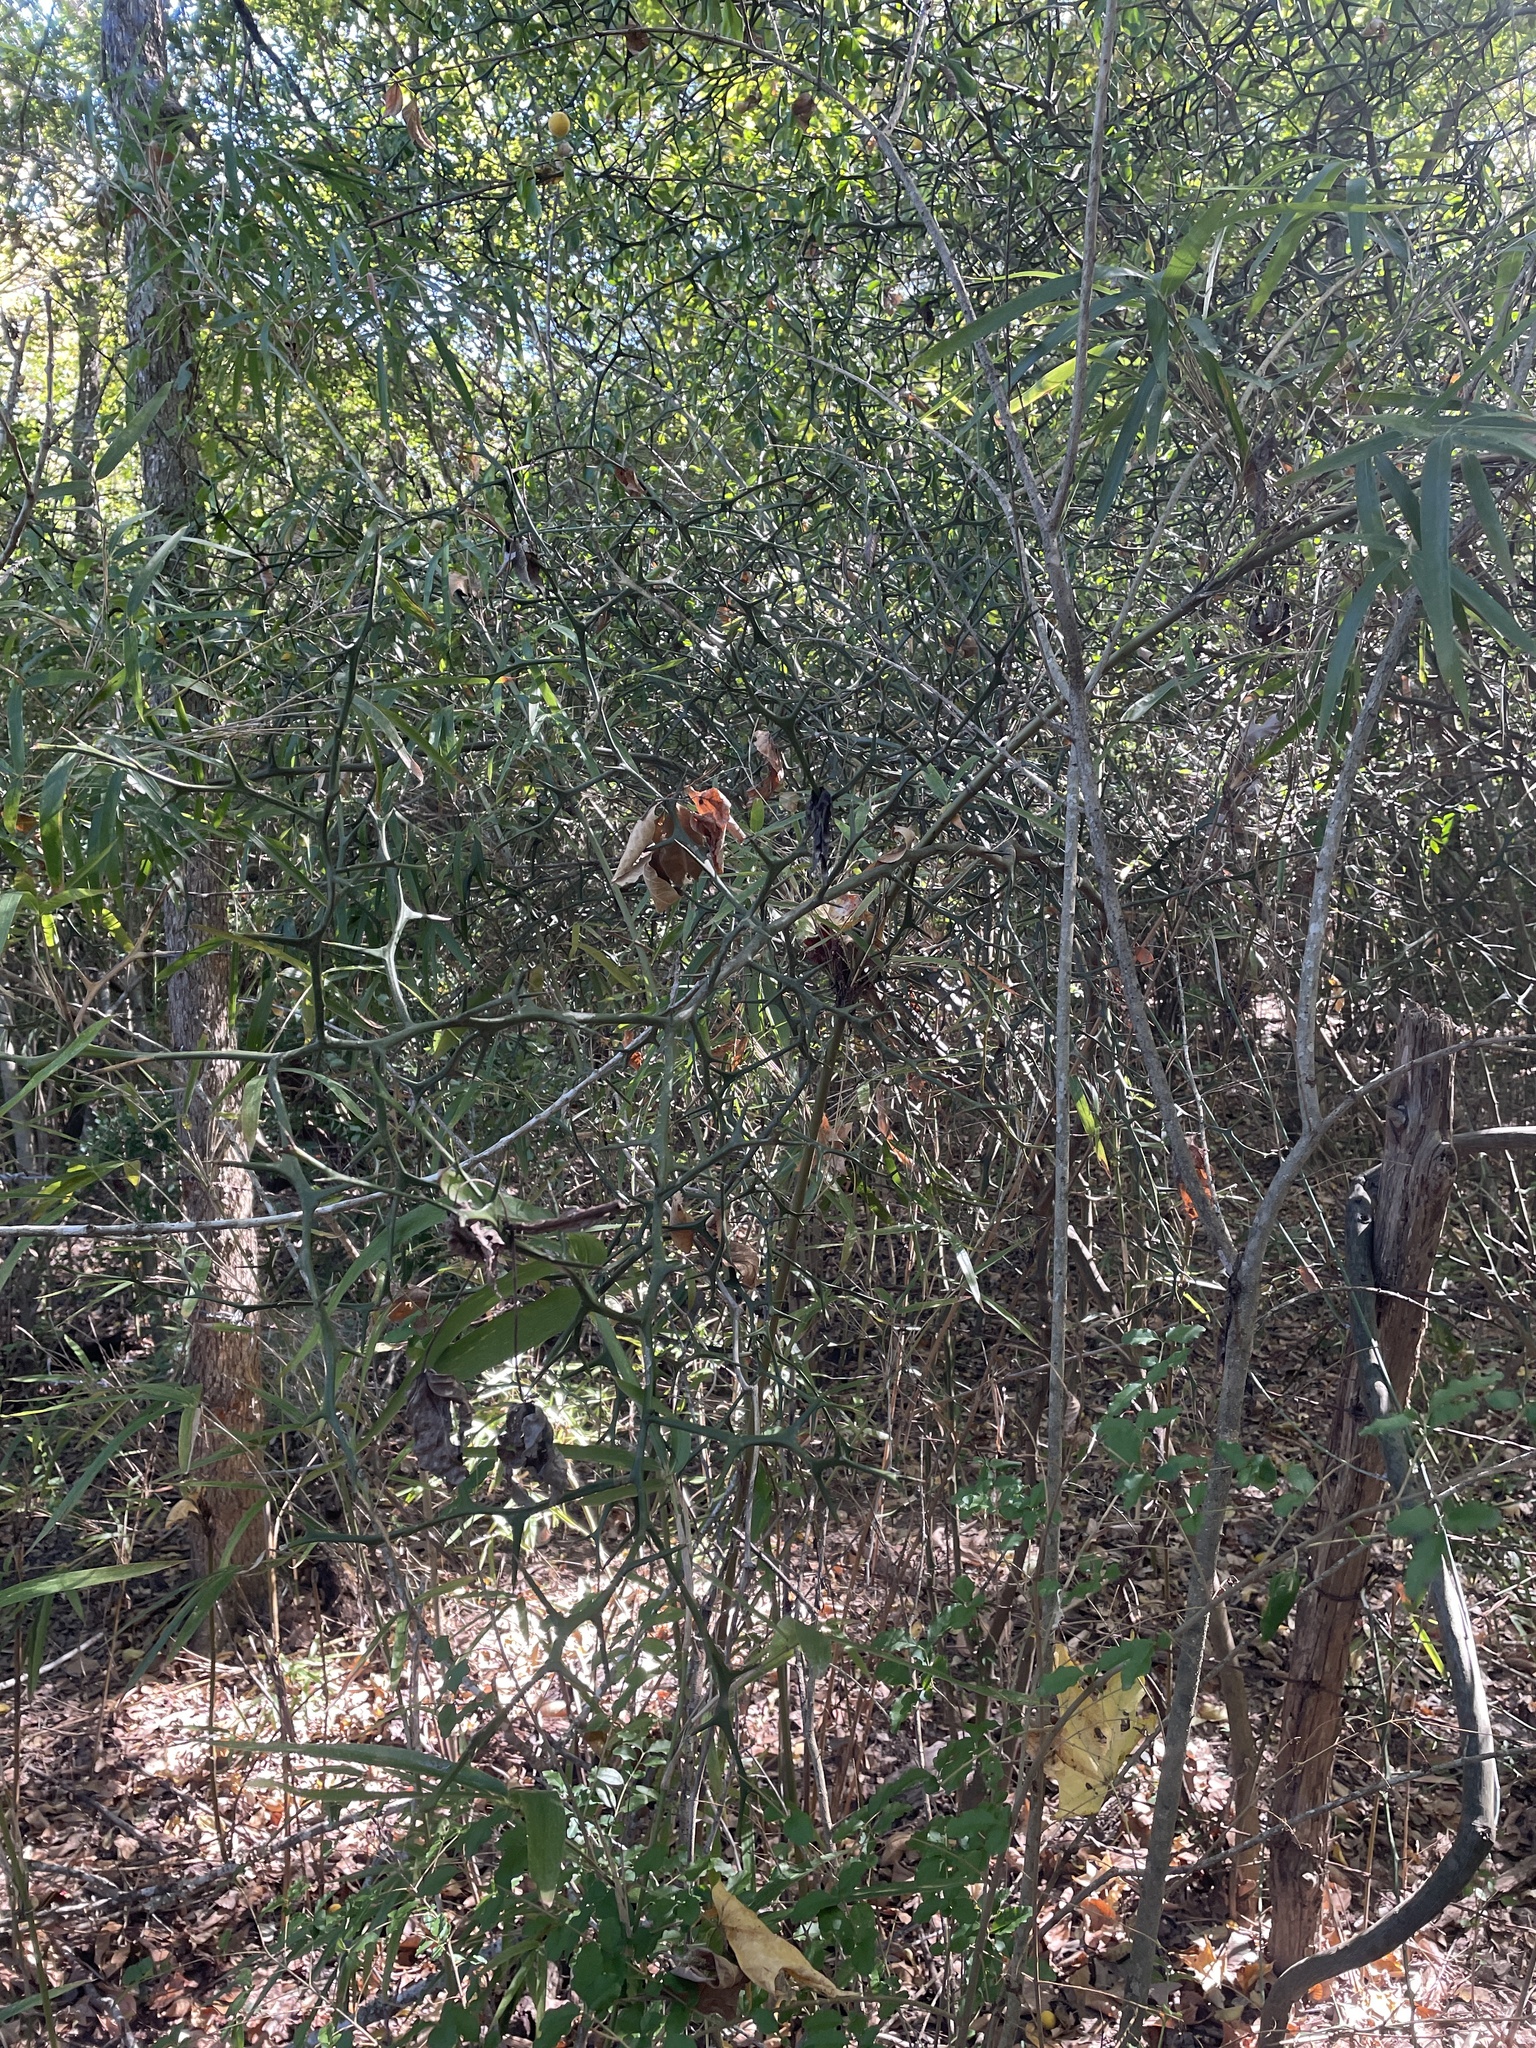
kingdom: Plantae
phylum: Tracheophyta
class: Magnoliopsida
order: Sapindales
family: Rutaceae
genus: Citrus
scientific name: Citrus trifoliata
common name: Japanese bitter-orange
